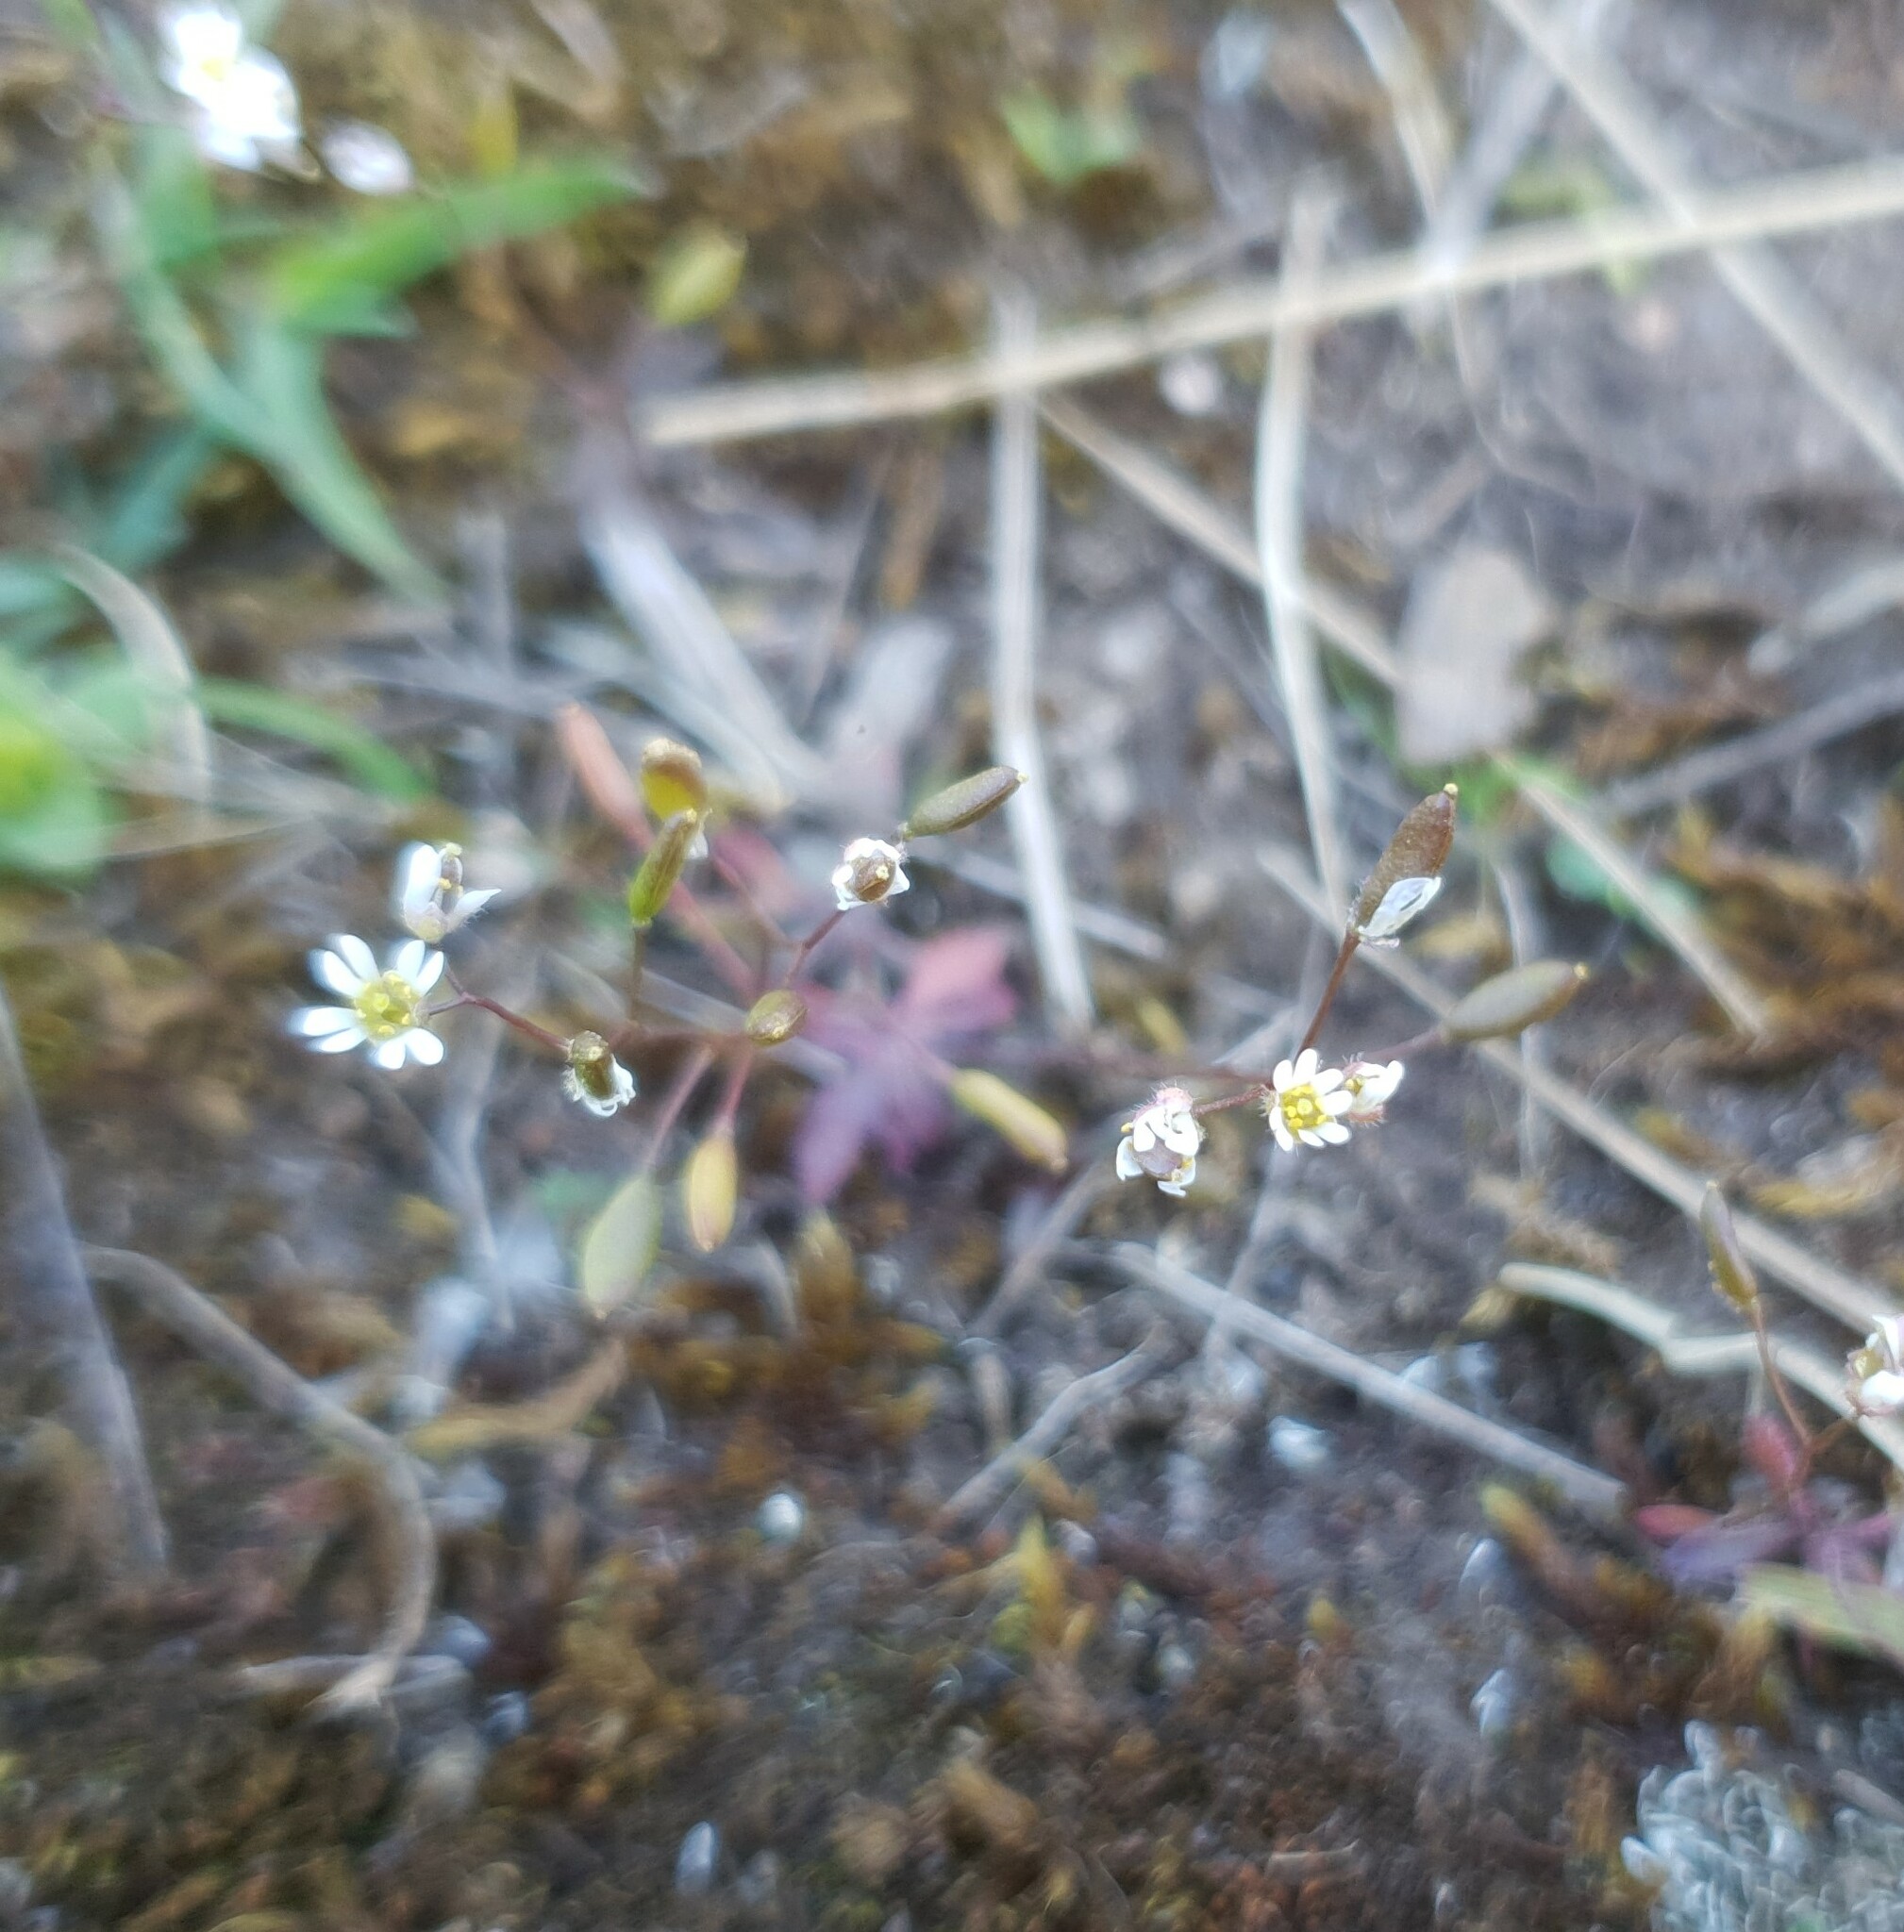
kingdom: Plantae
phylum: Tracheophyta
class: Magnoliopsida
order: Brassicales
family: Brassicaceae
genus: Draba
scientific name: Draba verna
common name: Spring draba
